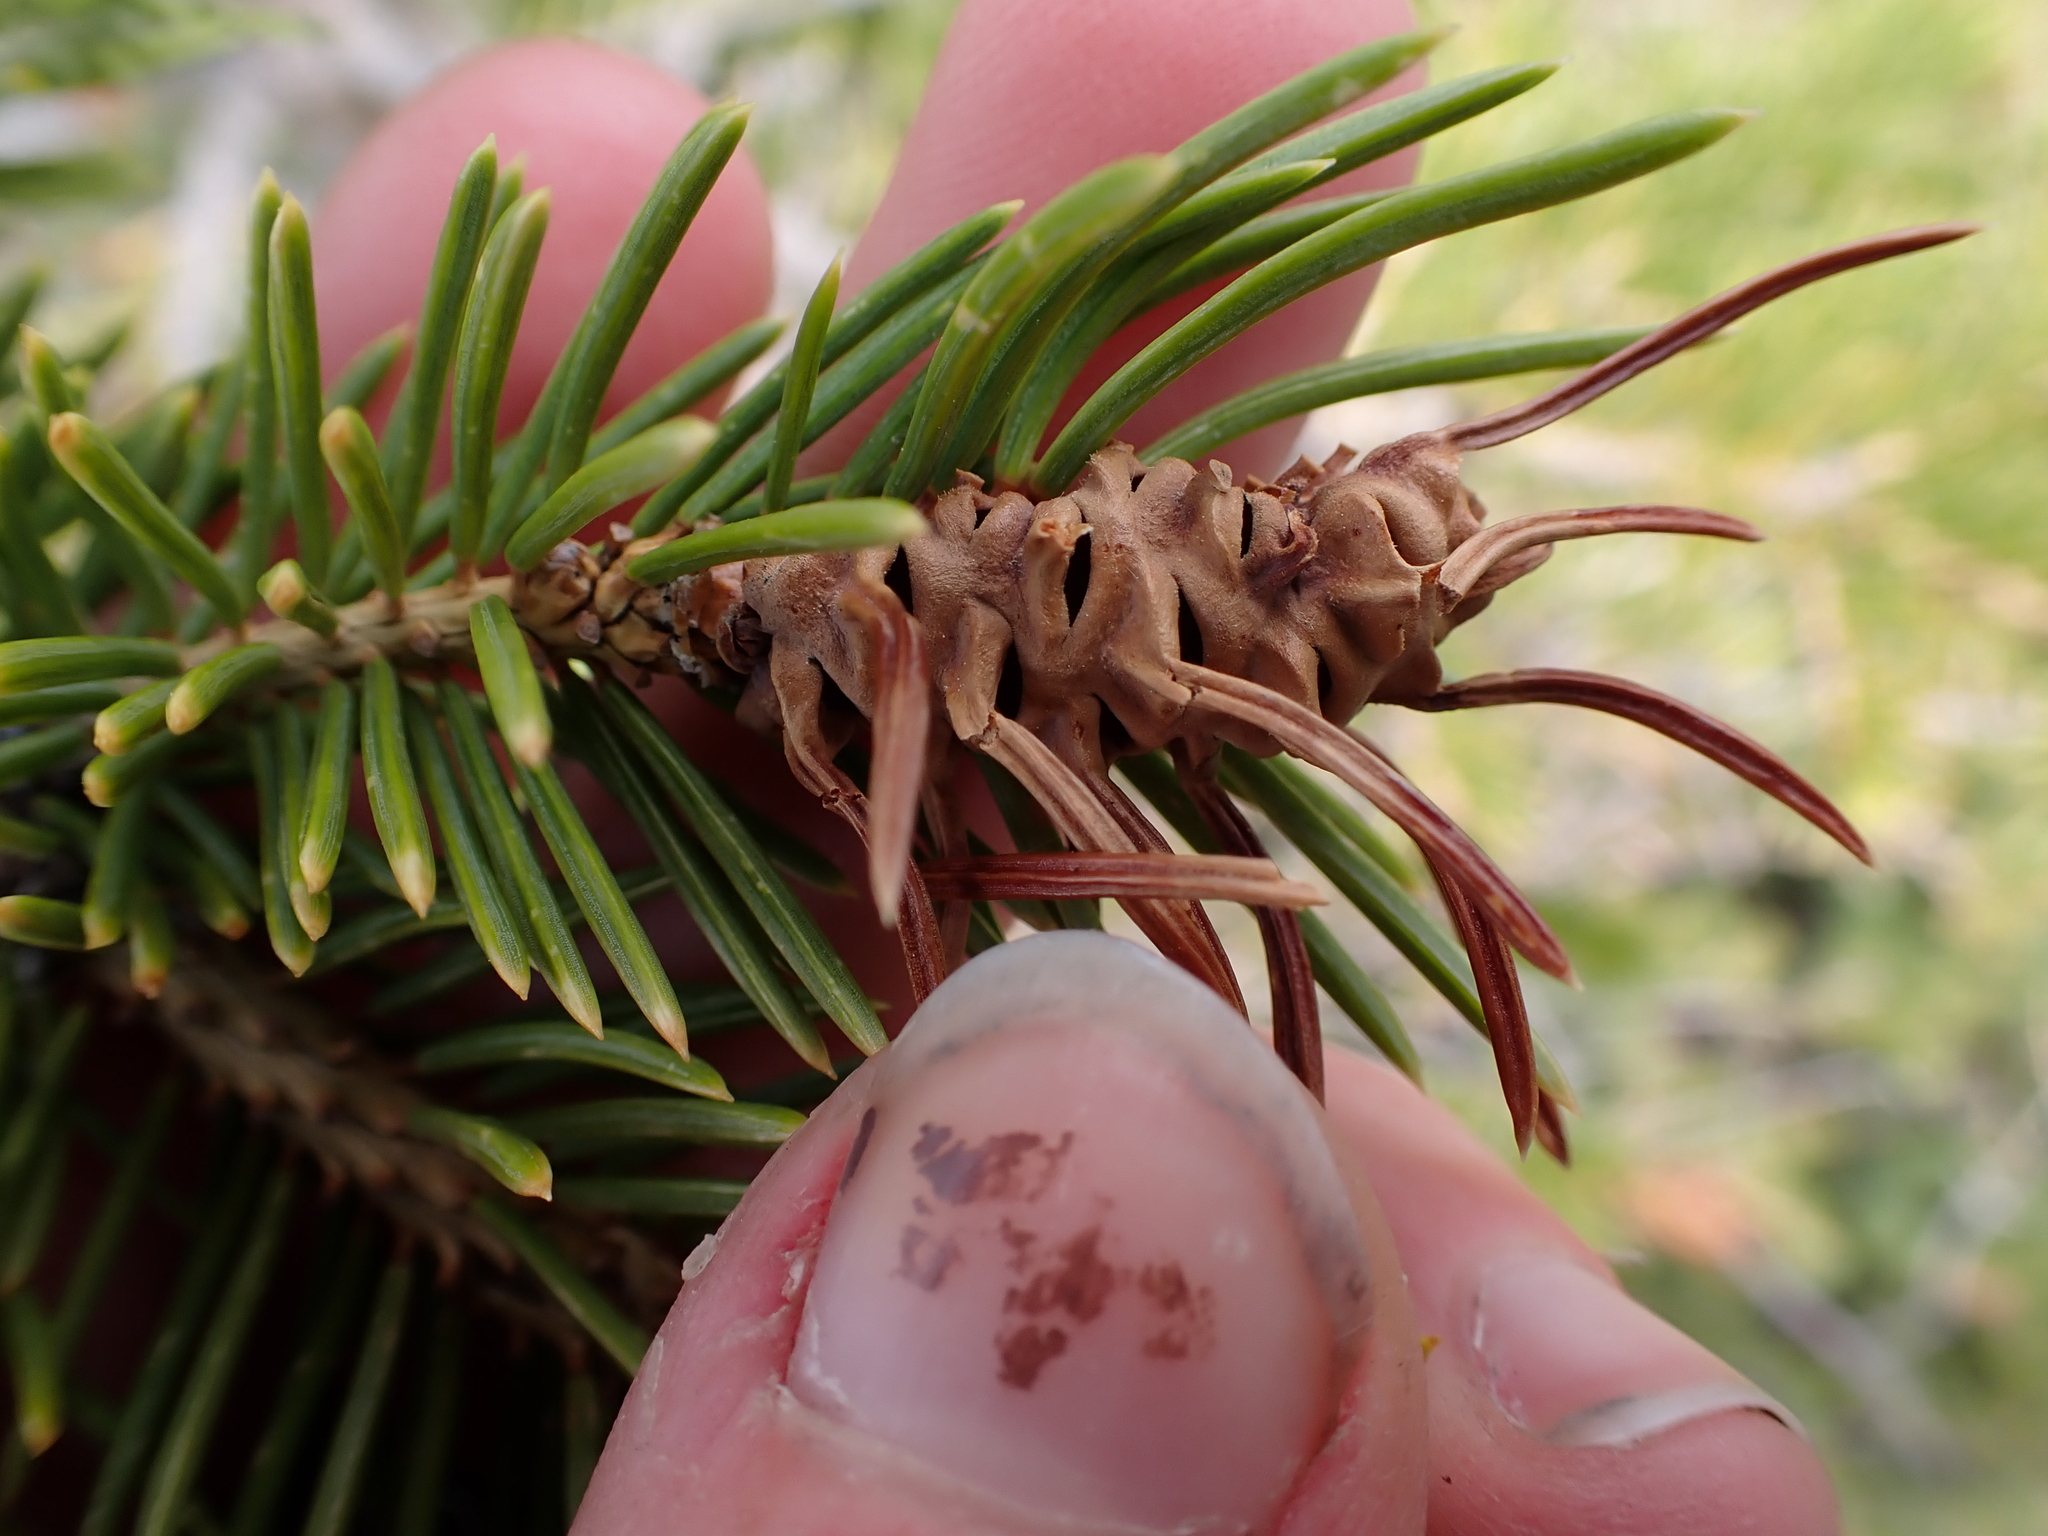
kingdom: Animalia
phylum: Arthropoda
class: Insecta
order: Hemiptera
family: Adelgidae
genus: Adelges
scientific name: Adelges cooleyi
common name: Cooley spruce gall adelgid
